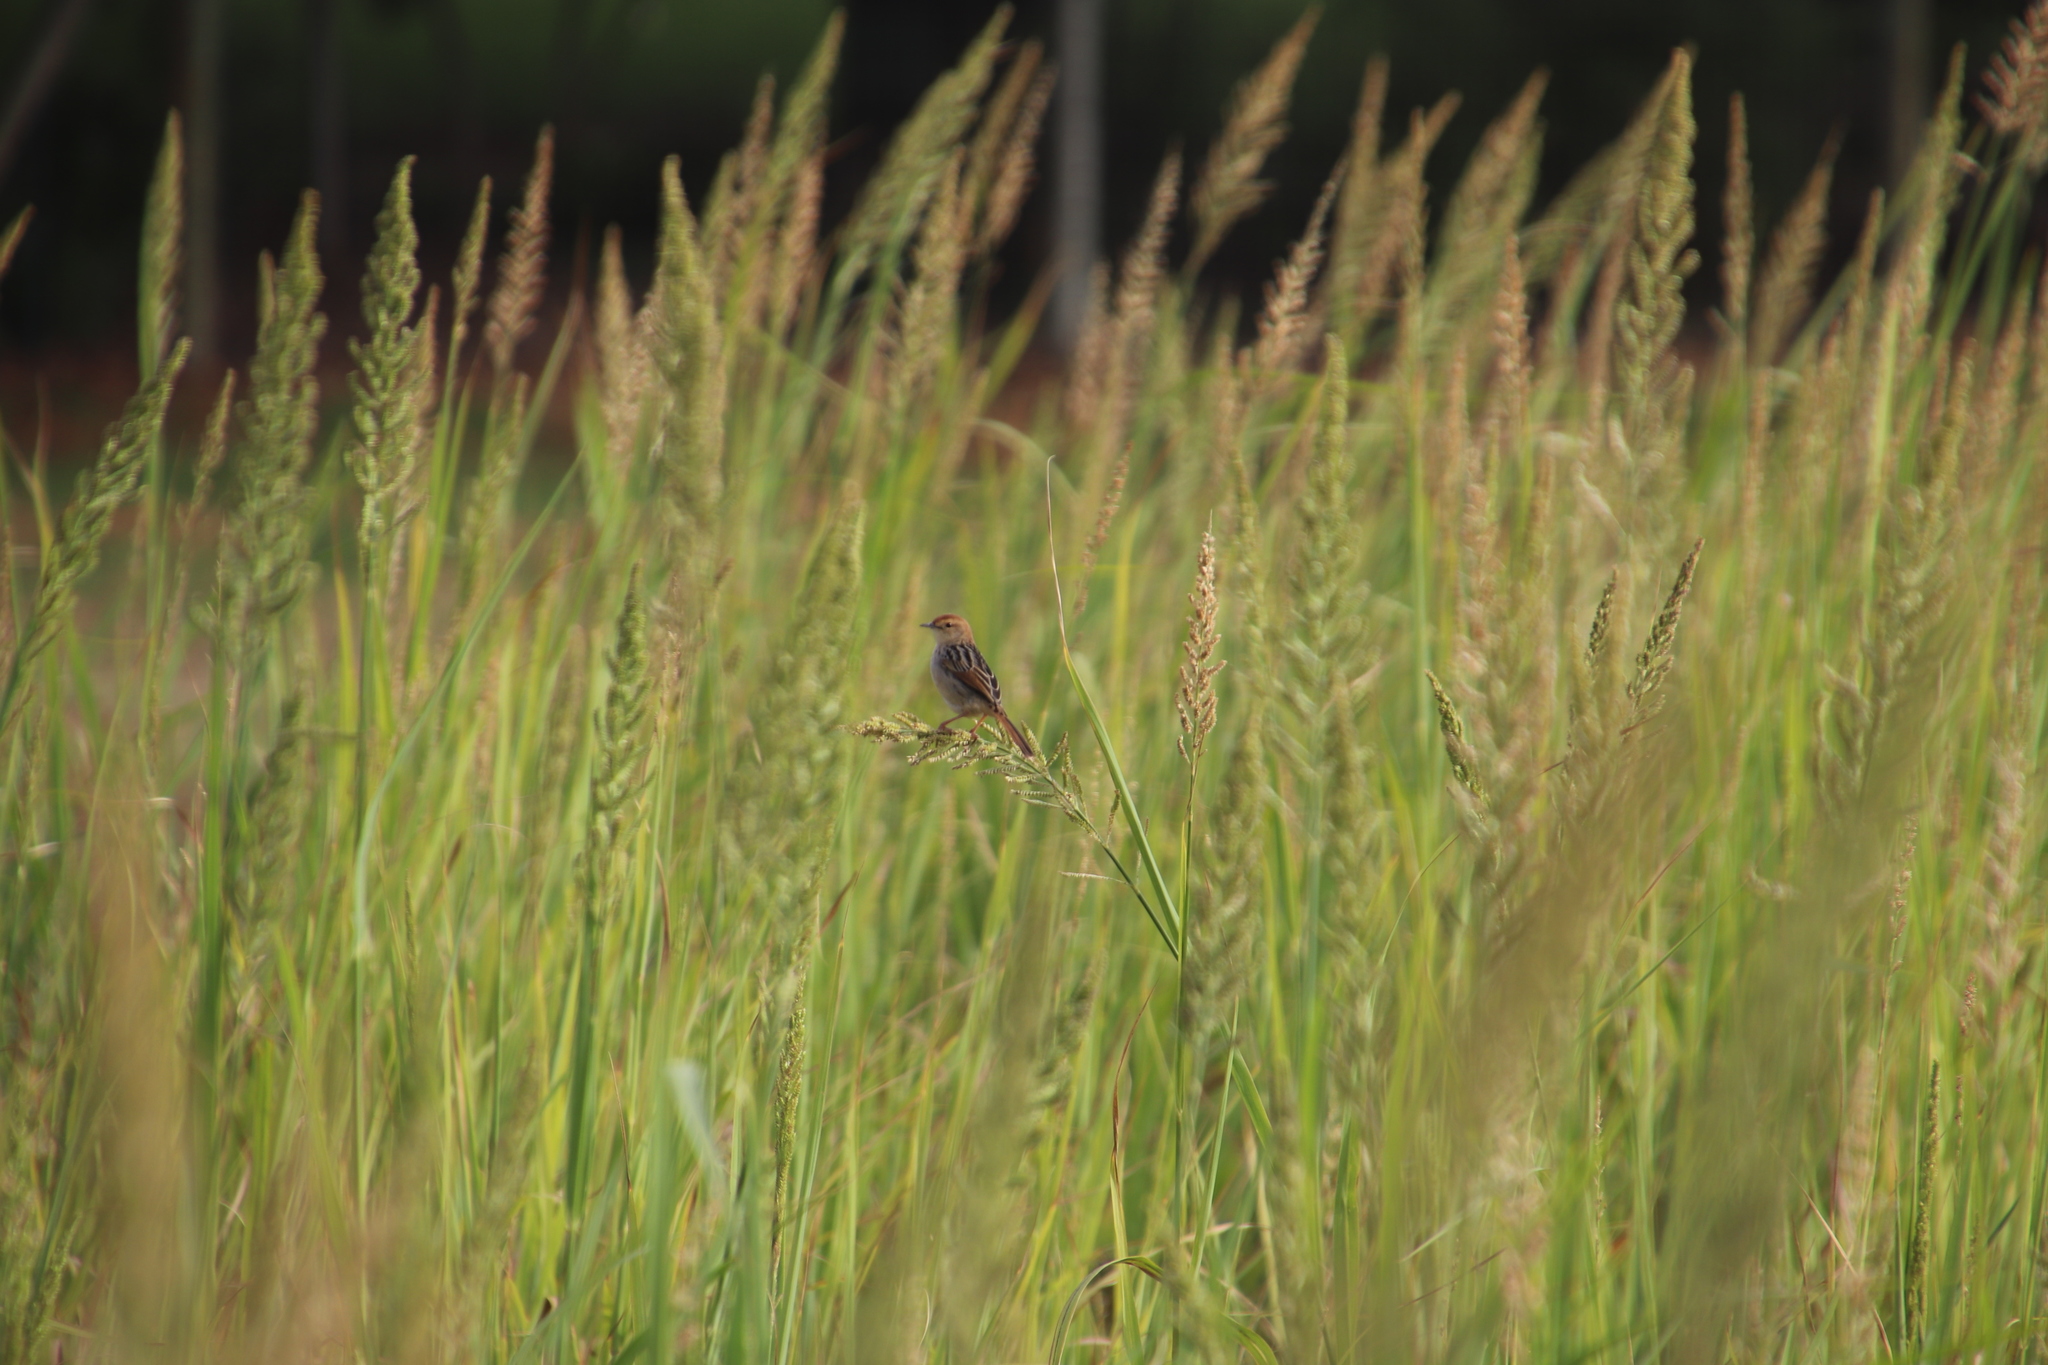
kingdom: Plantae
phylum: Tracheophyta
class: Liliopsida
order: Poales
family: Poaceae
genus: Echinochloa
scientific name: Echinochloa pyramidalis
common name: Antelope grass
